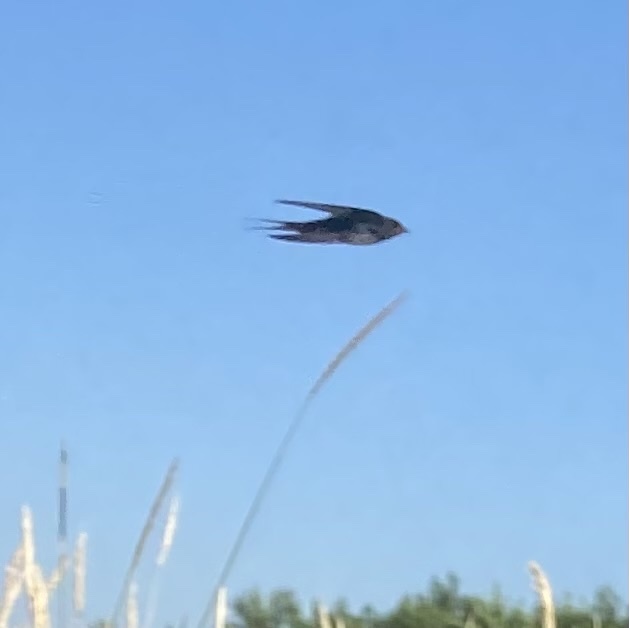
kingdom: Animalia
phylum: Chordata
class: Aves
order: Passeriformes
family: Hirundinidae
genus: Hirundo
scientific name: Hirundo rustica
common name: Barn swallow
